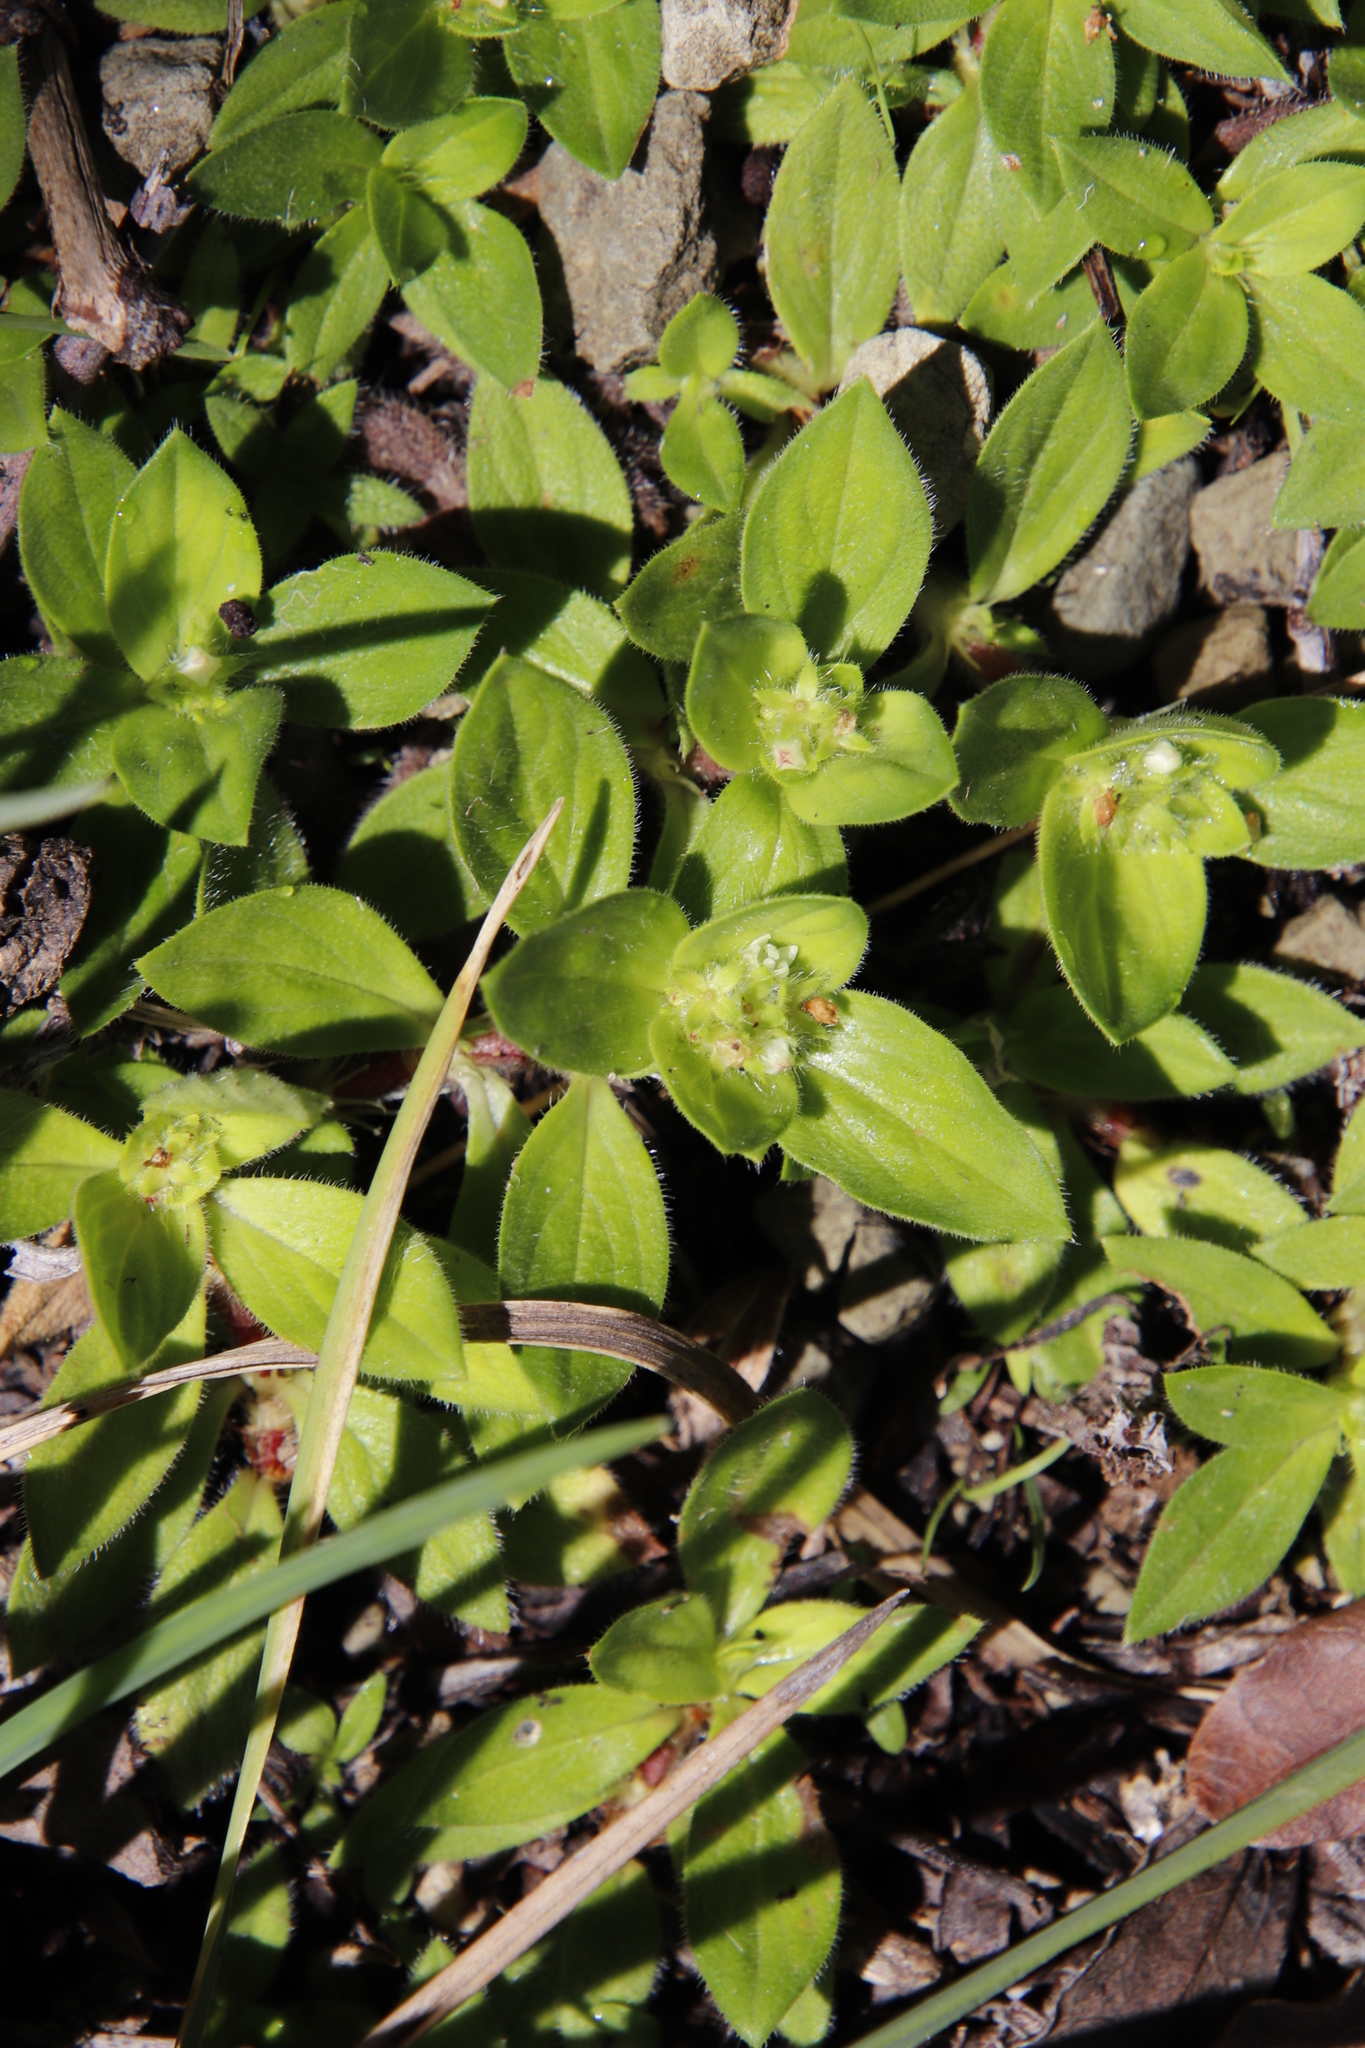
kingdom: Plantae
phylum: Tracheophyta
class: Magnoliopsida
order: Gentianales
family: Rubiaceae
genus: Richardia
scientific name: Richardia brasiliensis
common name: Tropical mexican clover
